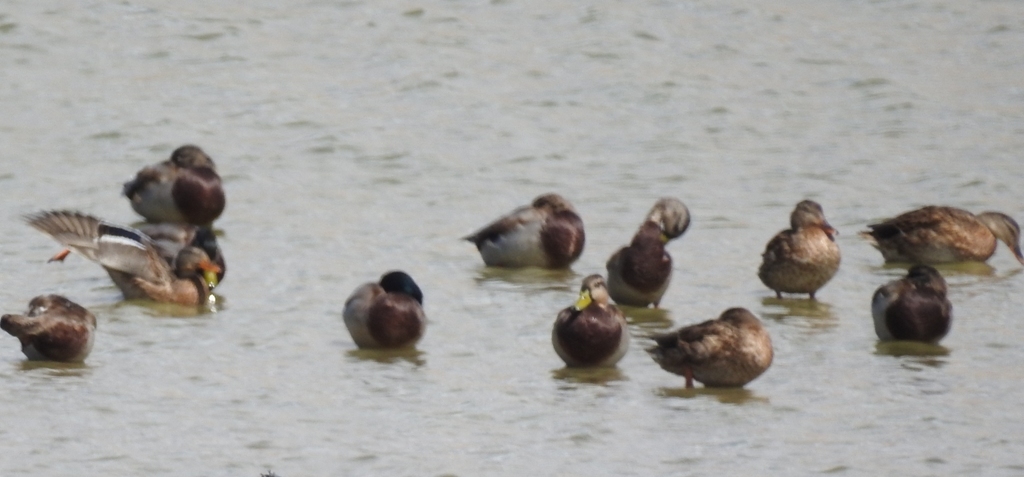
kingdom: Animalia
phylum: Chordata
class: Aves
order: Anseriformes
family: Anatidae
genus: Anas
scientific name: Anas platyrhynchos
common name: Mallard
